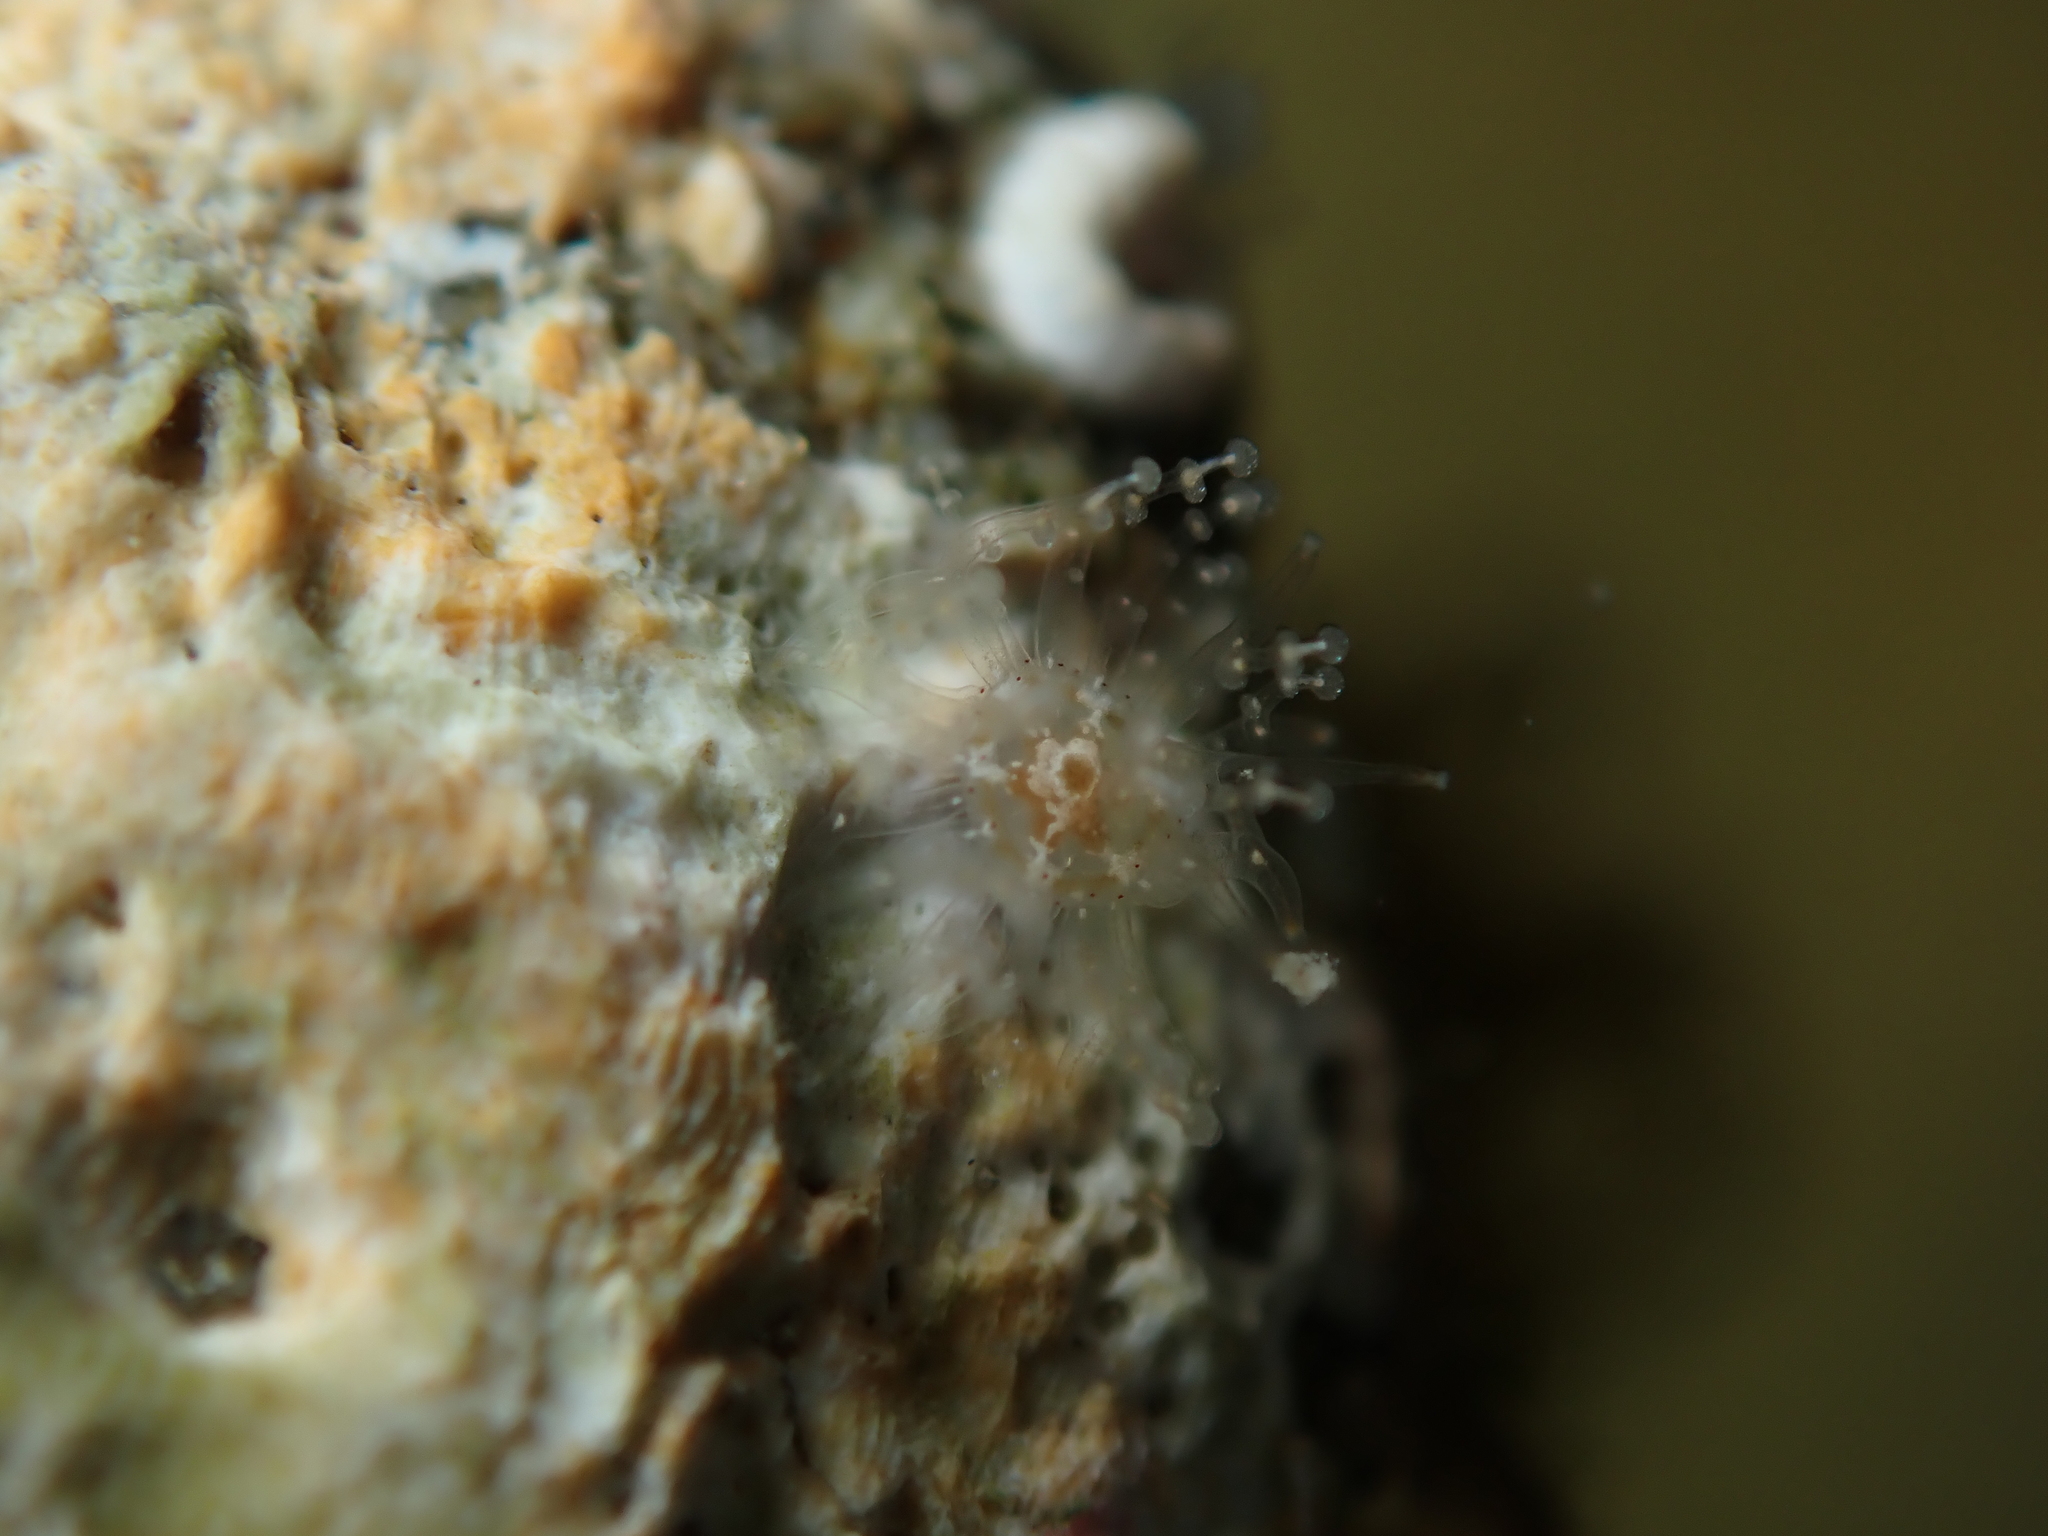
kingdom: Animalia
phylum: Cnidaria
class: Hydrozoa
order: Anthoathecata
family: Cladonematidae
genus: Staurocladia
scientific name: Staurocladia wellingtoni
